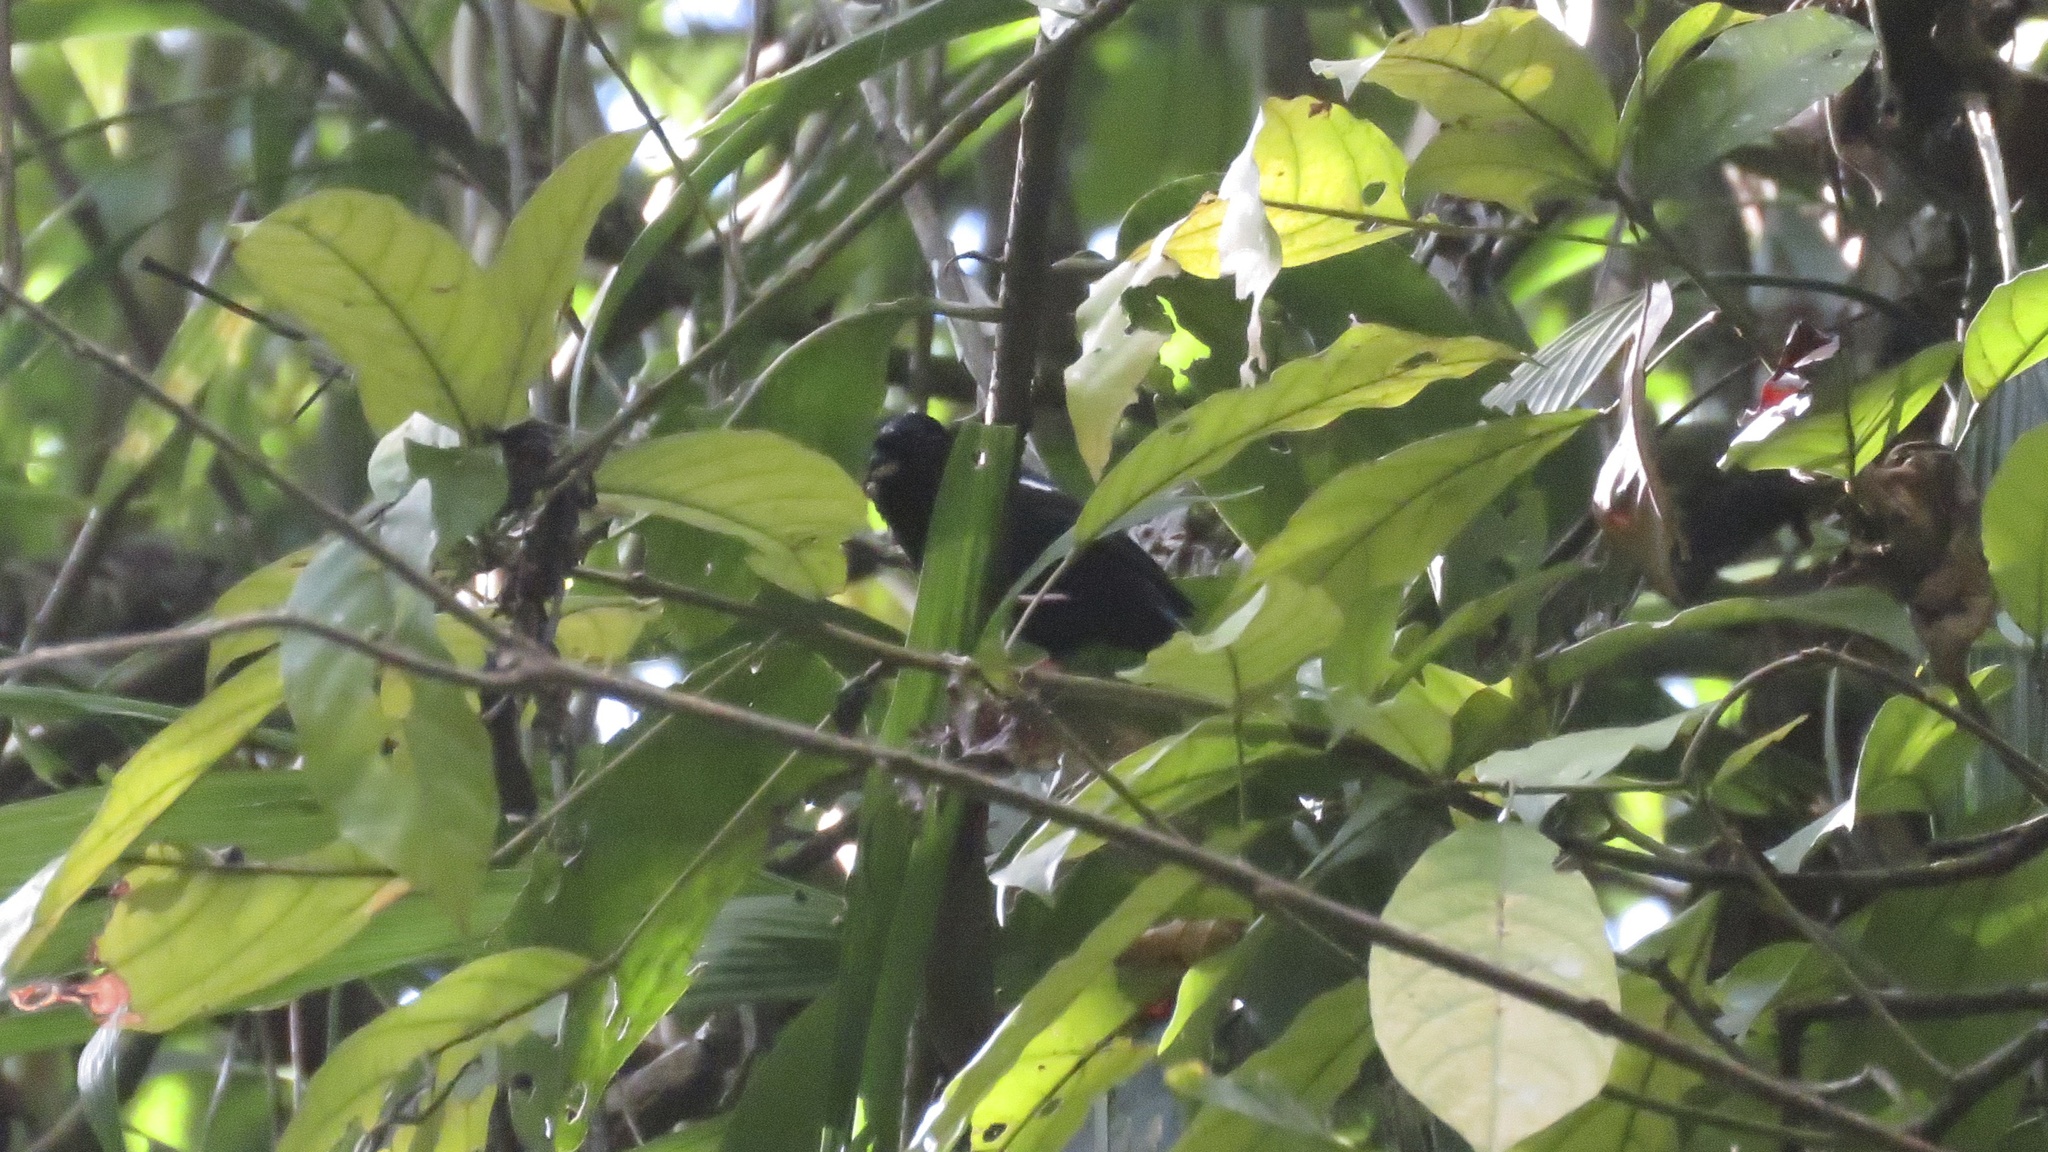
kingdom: Animalia
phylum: Chordata
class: Aves
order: Passeriformes
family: Thraupidae
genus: Loriotus
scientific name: Loriotus luctuosus
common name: White-shouldered tanager
